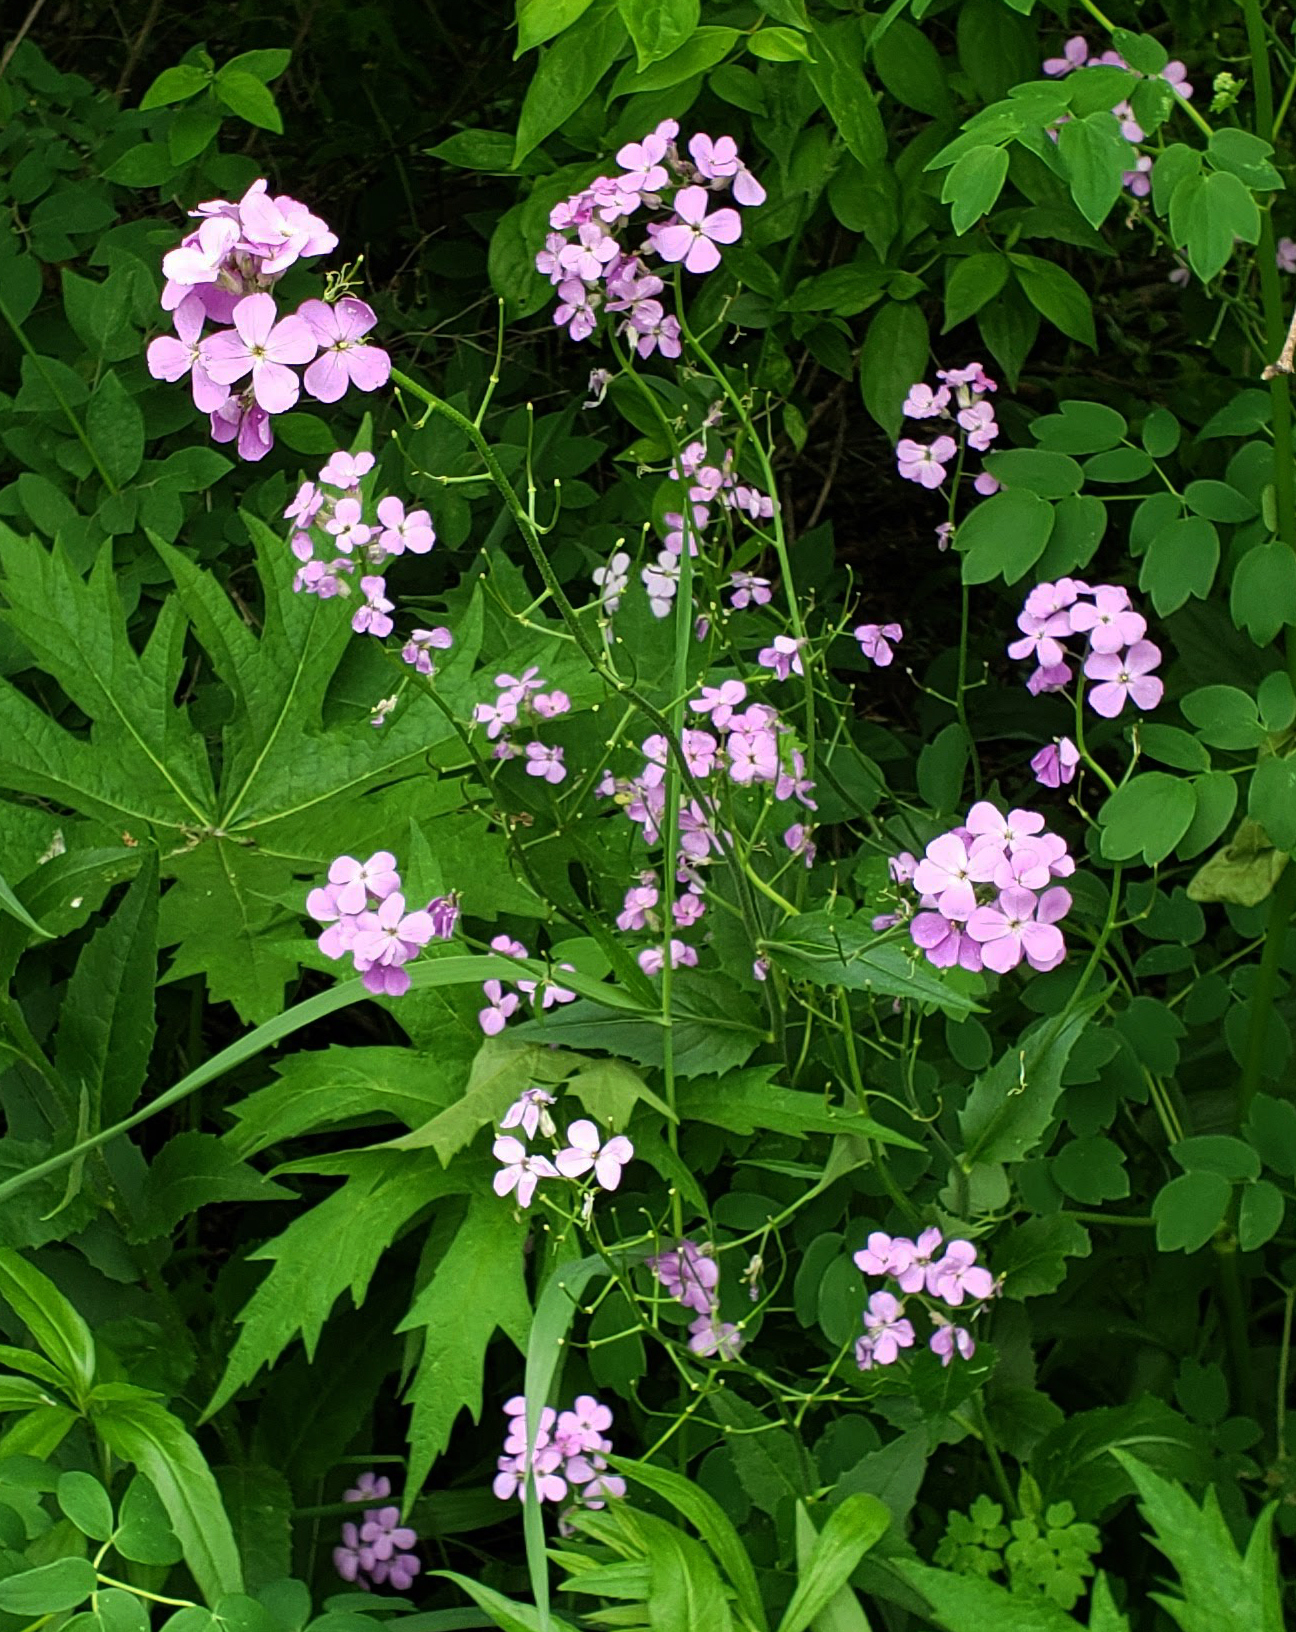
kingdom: Plantae
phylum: Tracheophyta
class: Magnoliopsida
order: Brassicales
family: Brassicaceae
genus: Hesperis
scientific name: Hesperis matronalis
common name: Dame's-violet
